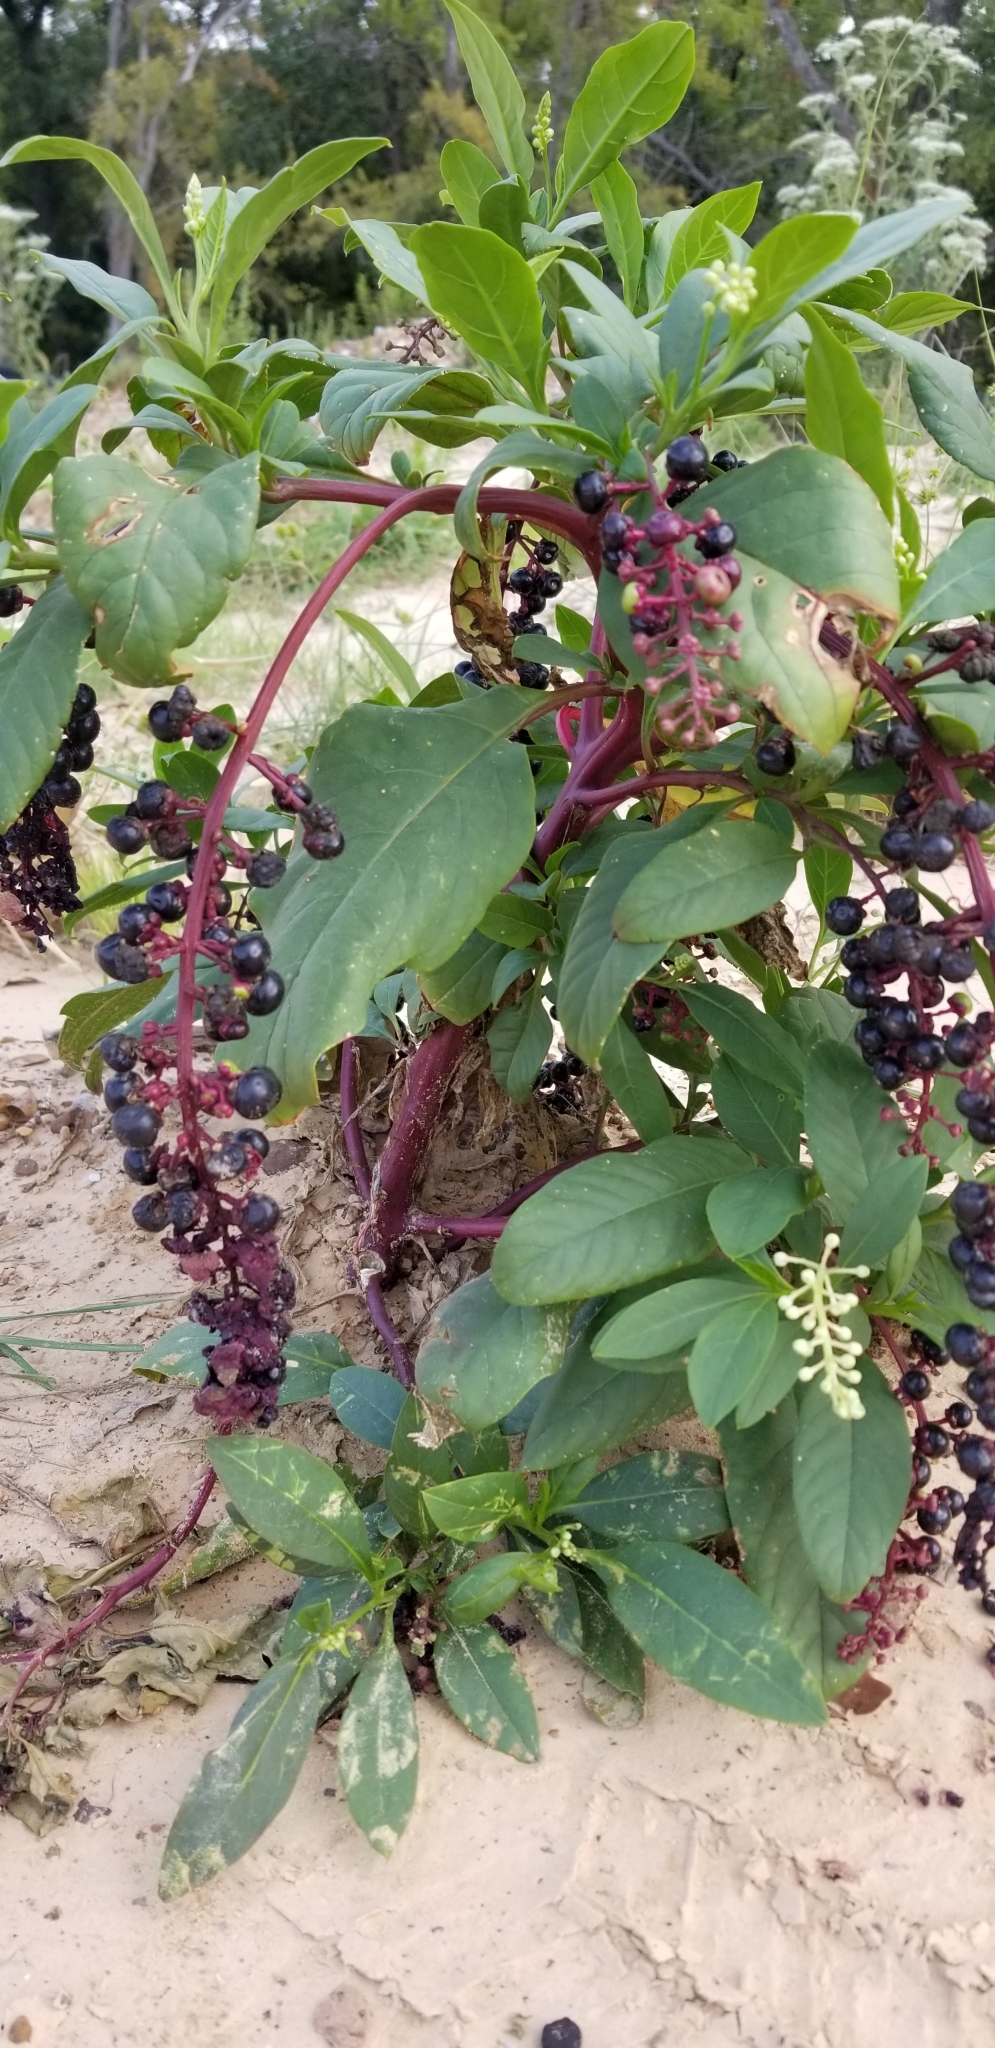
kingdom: Plantae
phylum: Tracheophyta
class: Magnoliopsida
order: Caryophyllales
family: Phytolaccaceae
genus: Phytolacca
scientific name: Phytolacca americana
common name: American pokeweed
